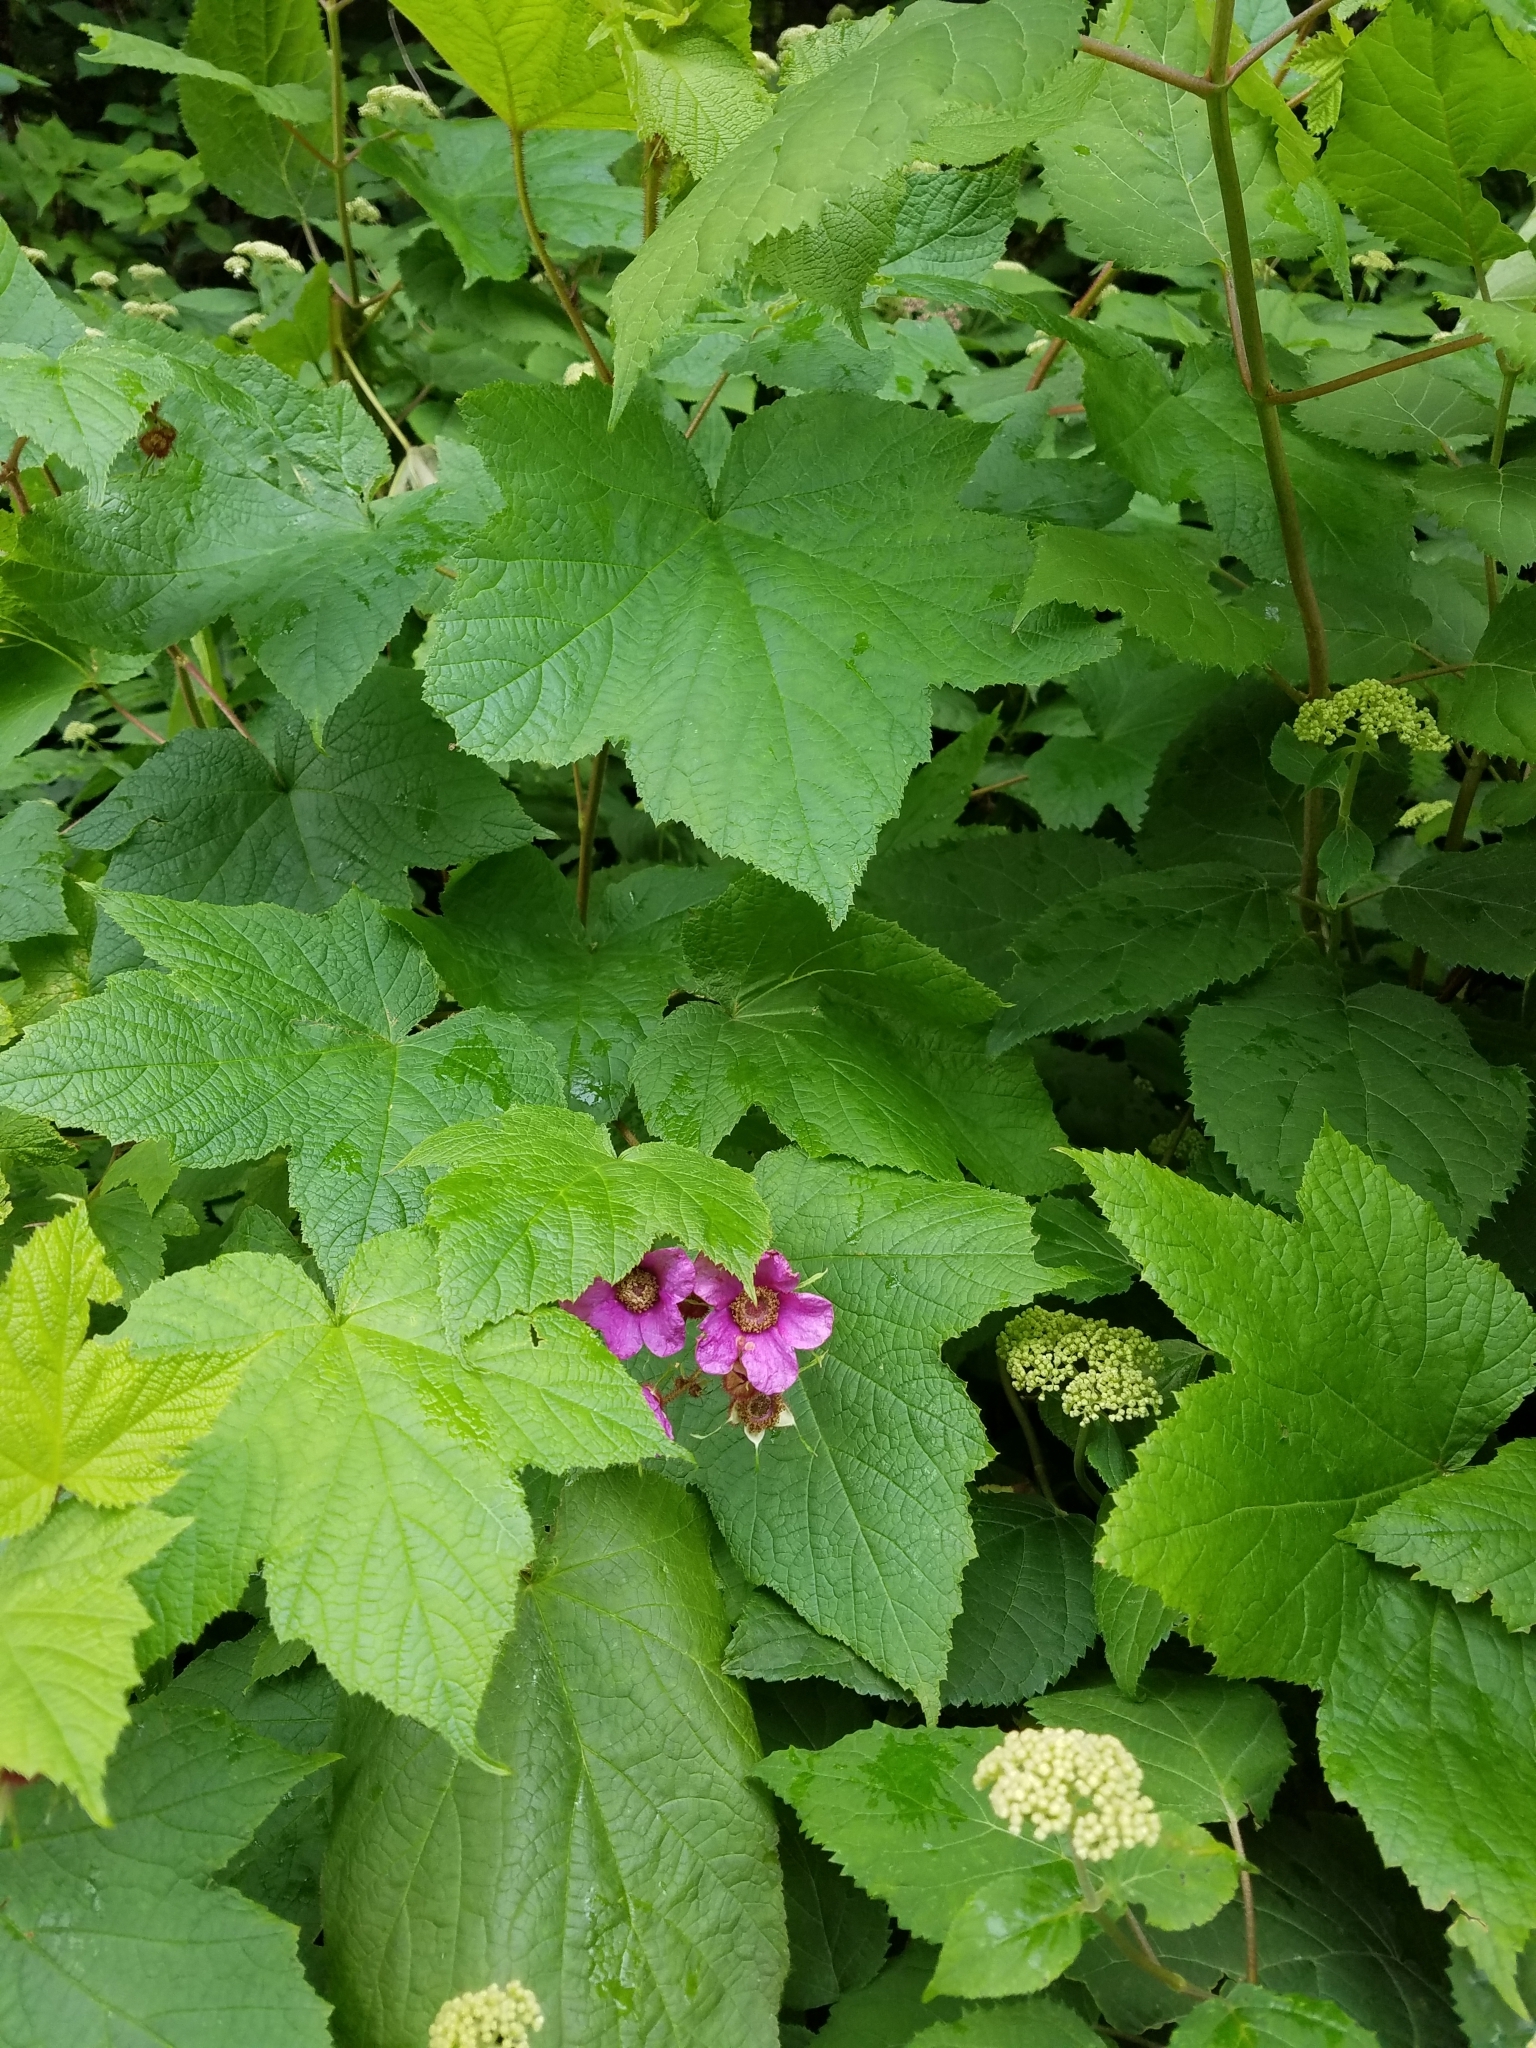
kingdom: Plantae
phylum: Tracheophyta
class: Magnoliopsida
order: Rosales
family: Rosaceae
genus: Rubus
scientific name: Rubus odoratus
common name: Purple-flowered raspberry
